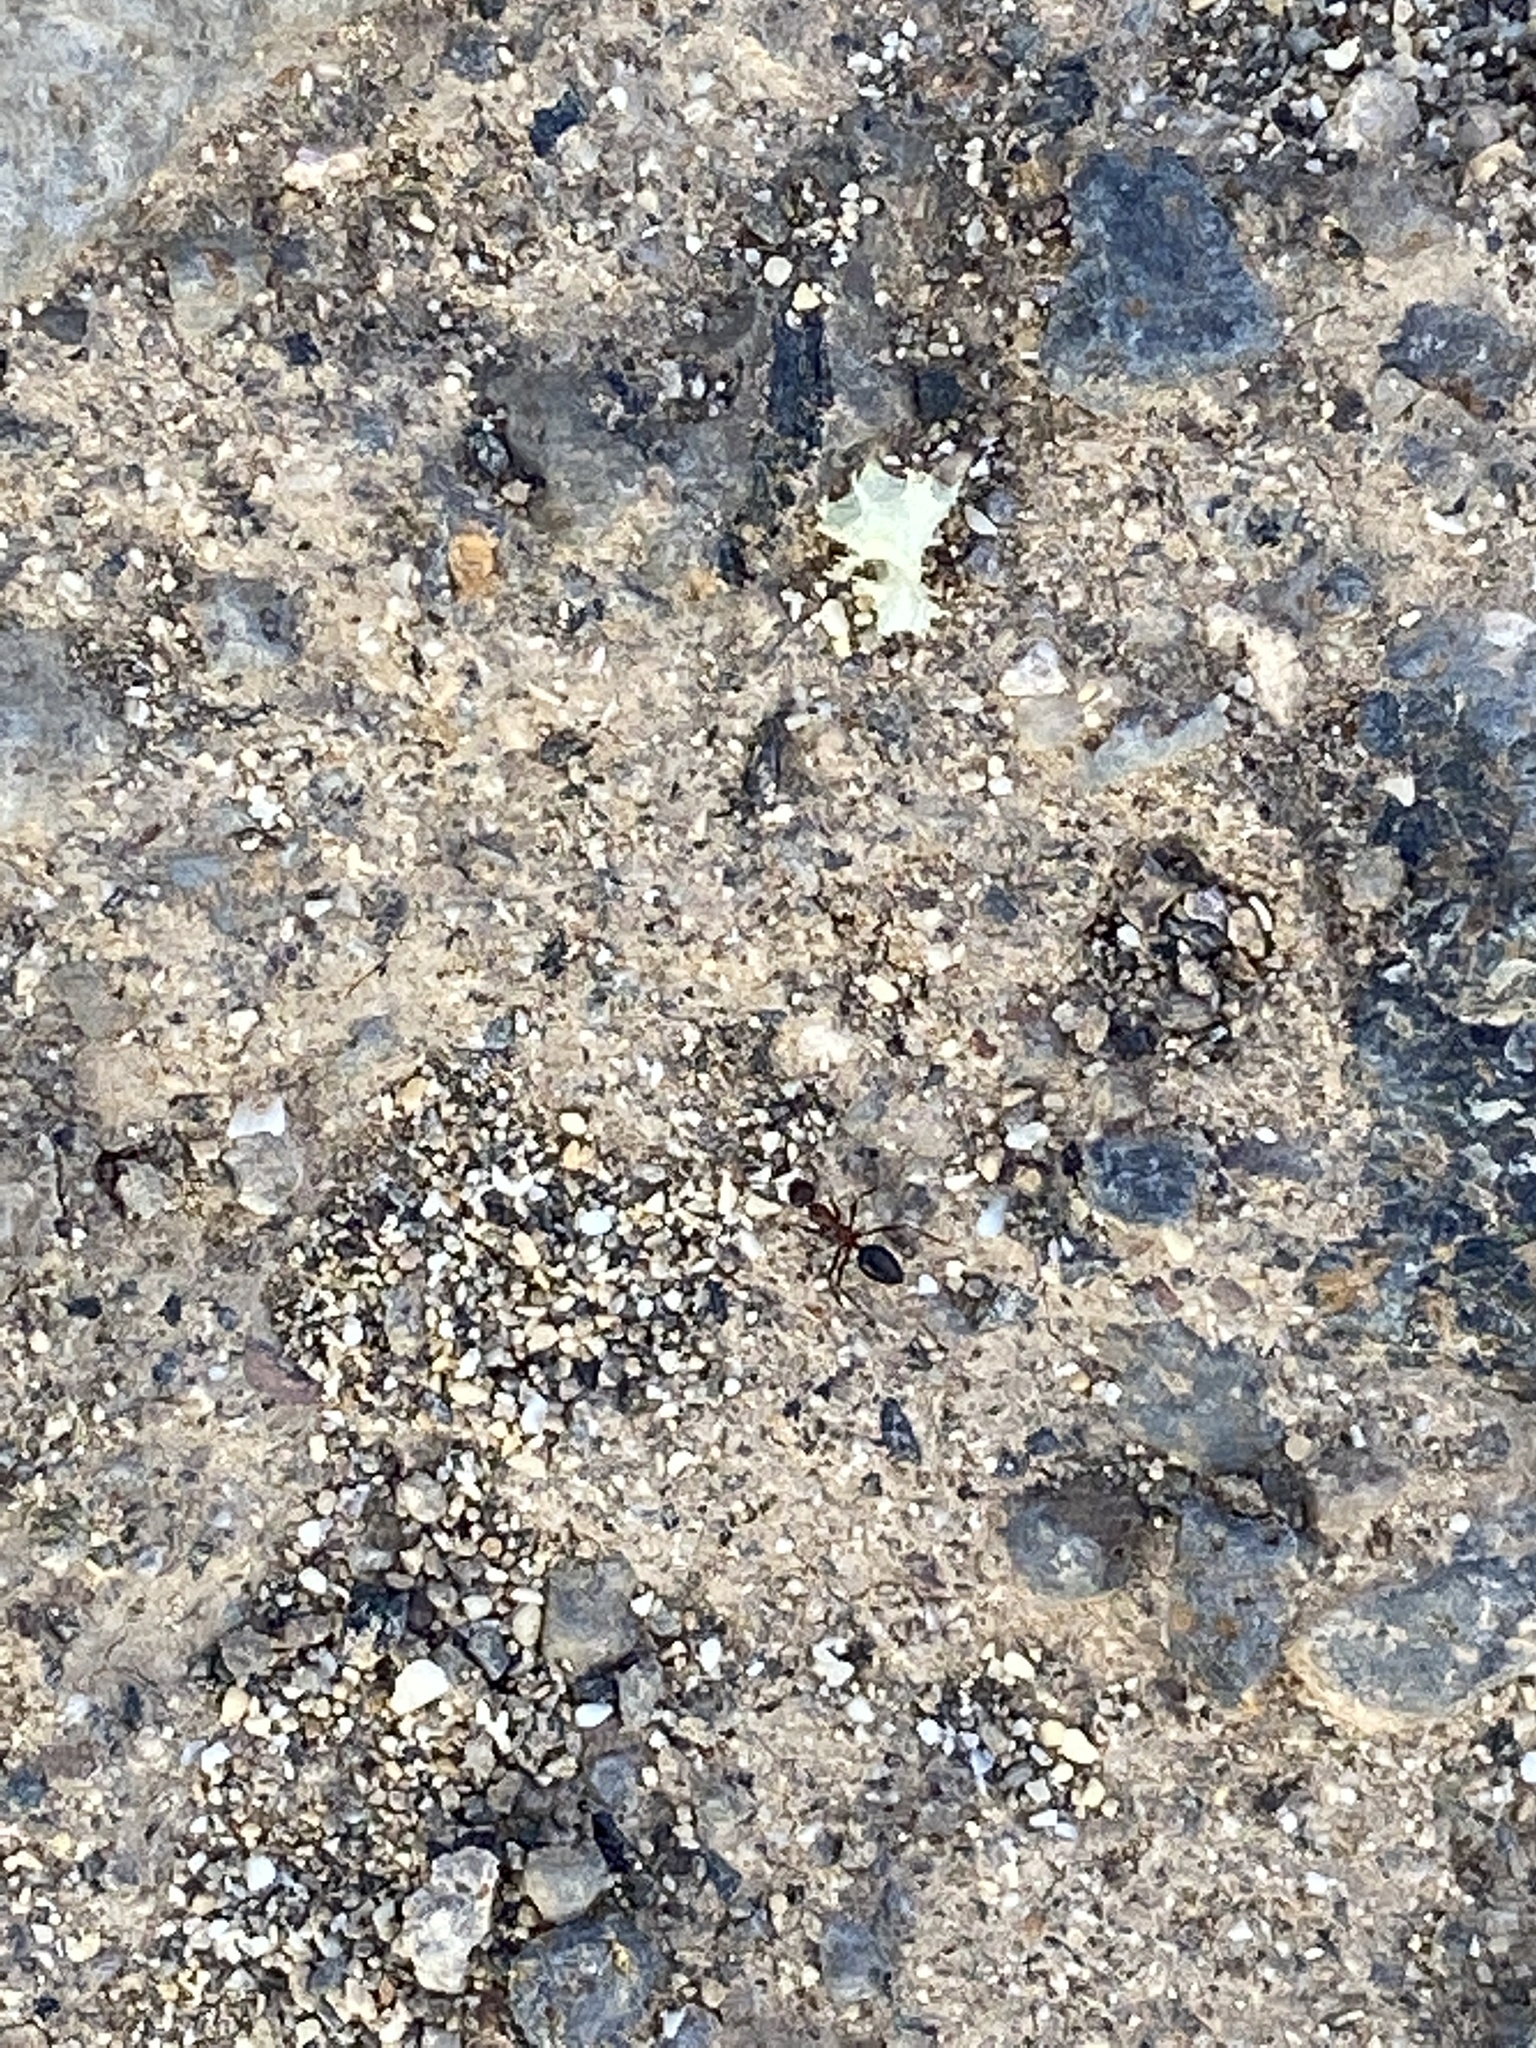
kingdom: Animalia
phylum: Arthropoda
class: Insecta
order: Hymenoptera
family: Formicidae
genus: Lepisiota
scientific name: Lepisiota frauenfeldi
